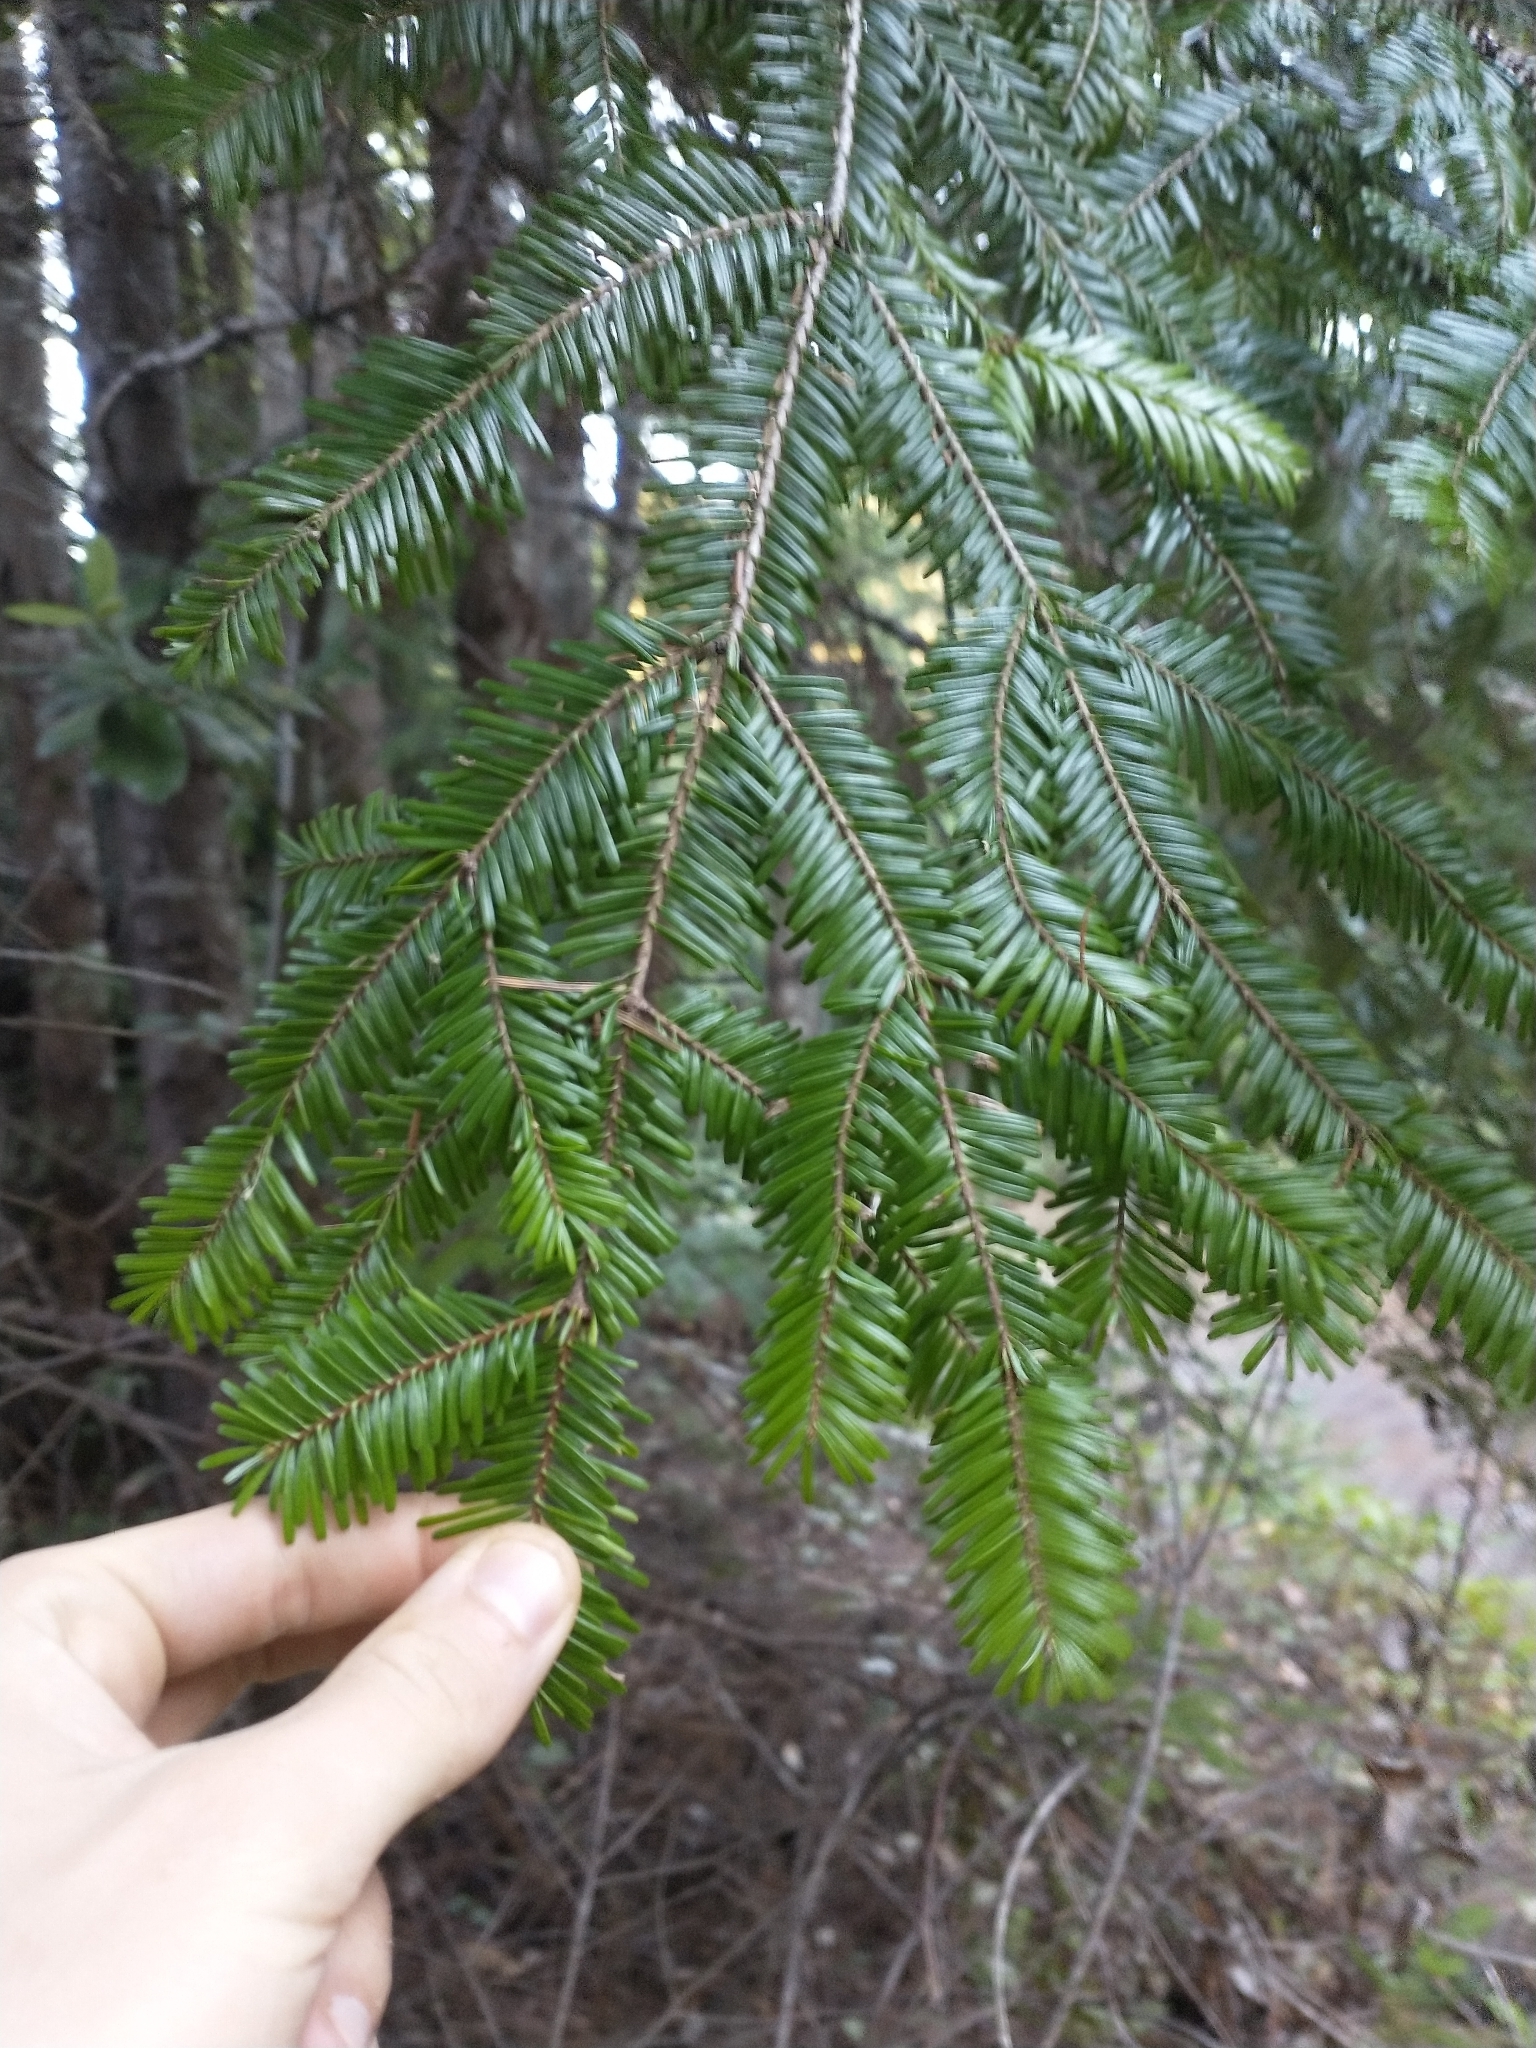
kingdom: Plantae
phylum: Tracheophyta
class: Pinopsida
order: Pinales
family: Pinaceae
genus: Abies
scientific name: Abies grandis
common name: Giant fir
